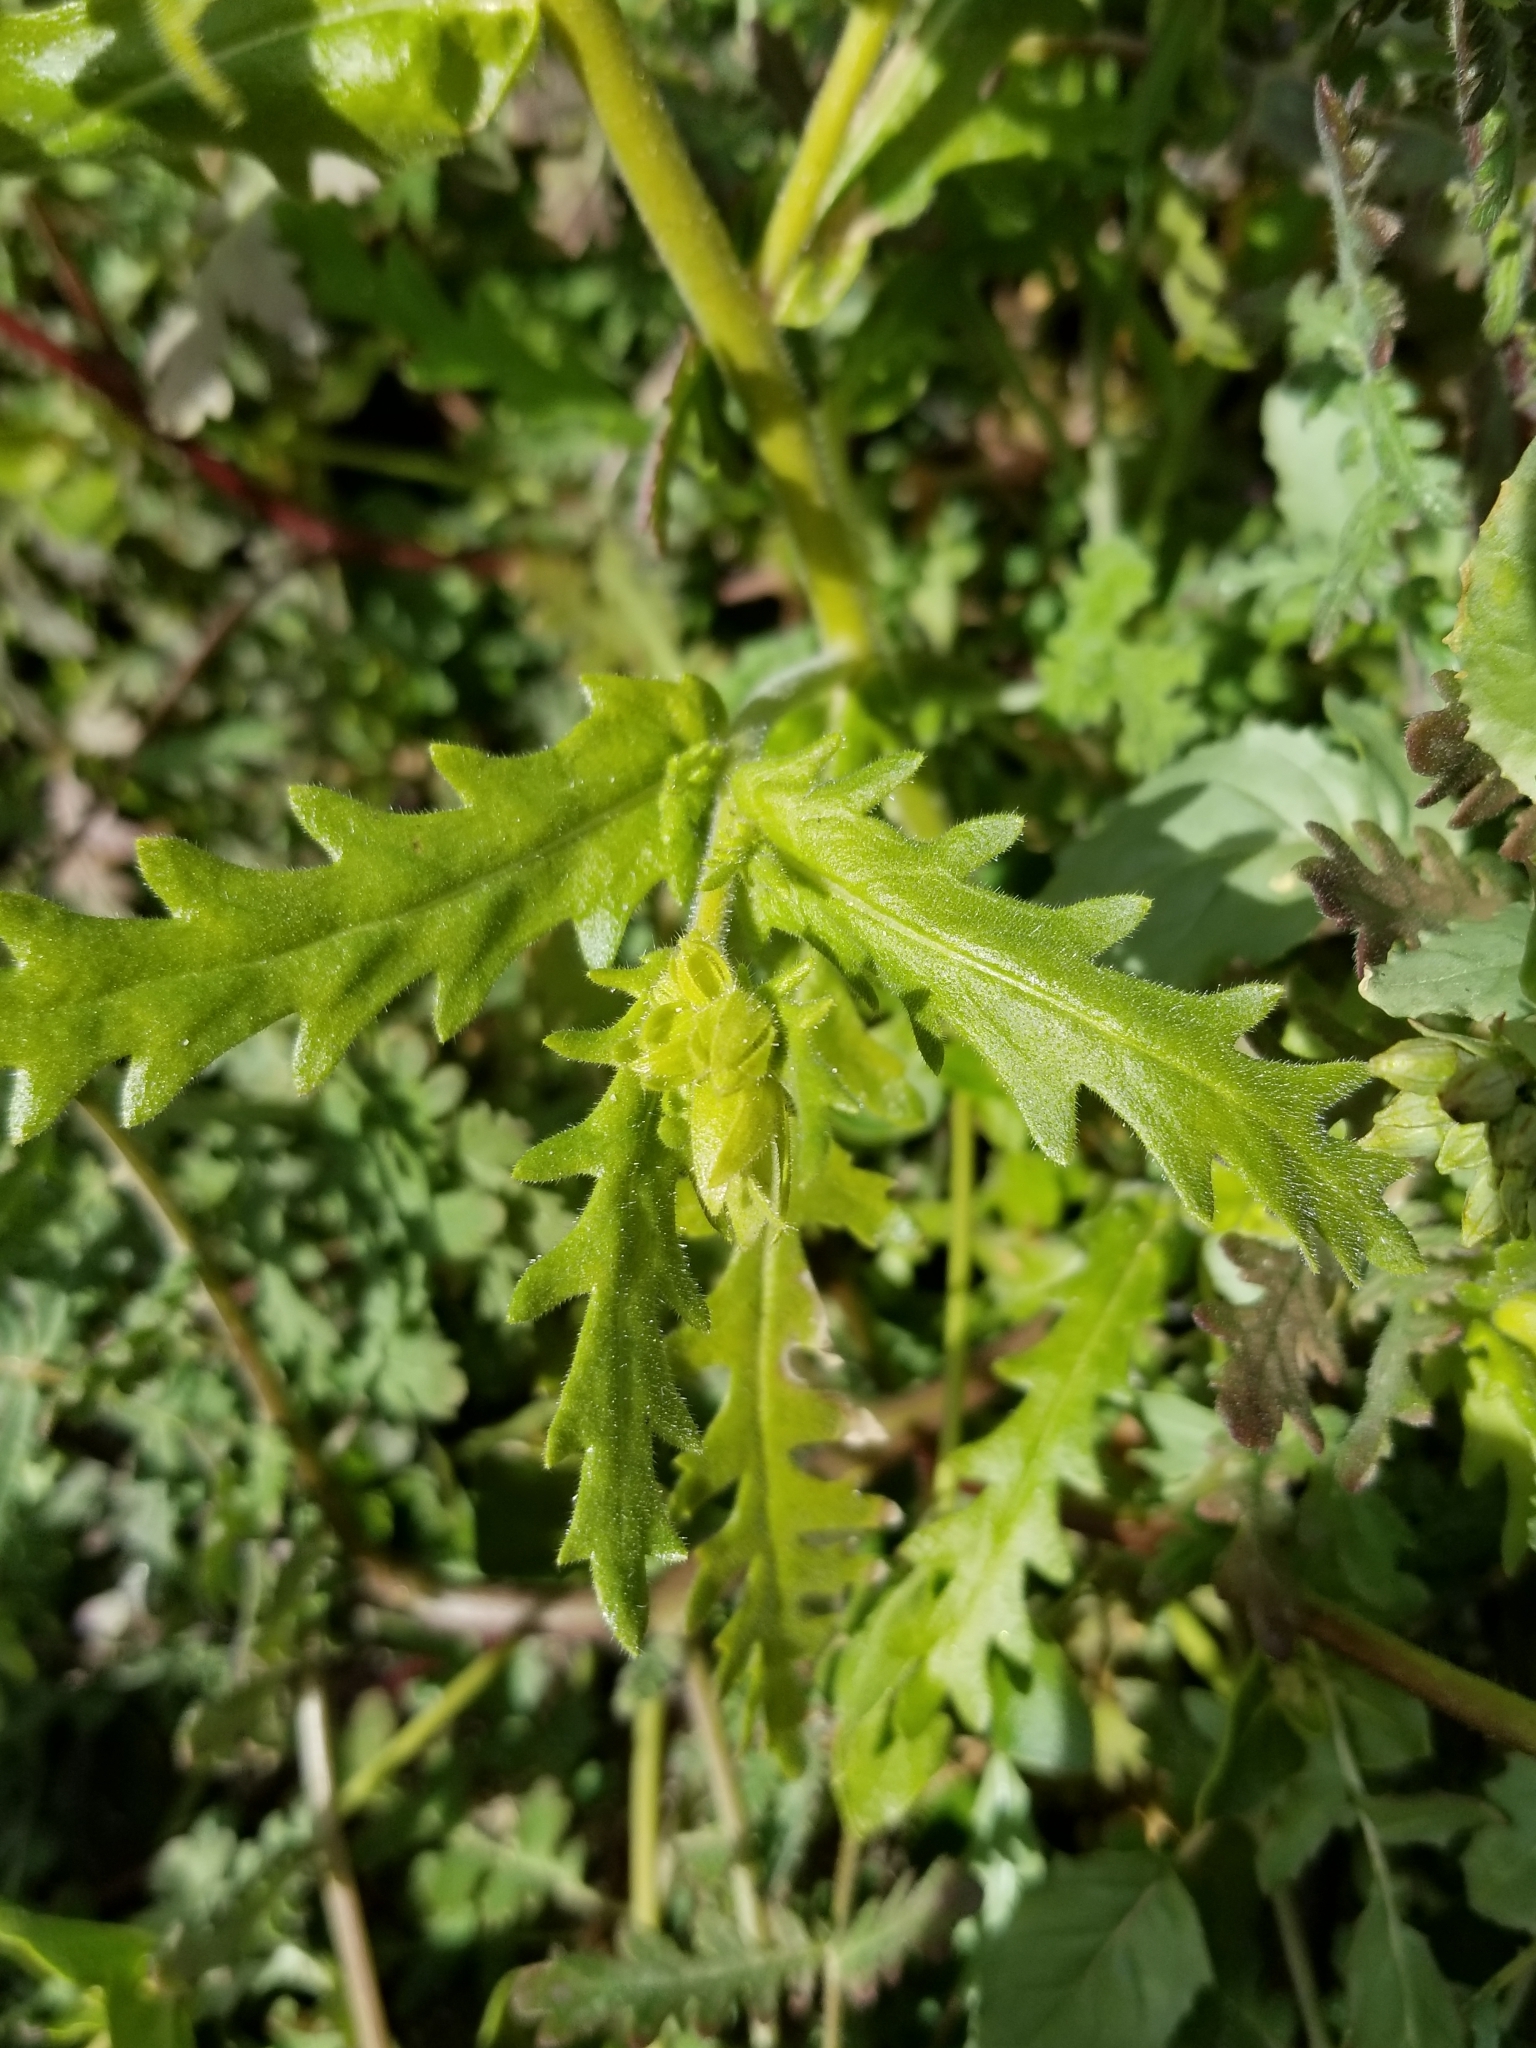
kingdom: Plantae
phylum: Tracheophyta
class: Magnoliopsida
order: Boraginales
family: Hydrophyllaceae
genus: Emmenanthe
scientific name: Emmenanthe penduliflora
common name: Whispering-bells
